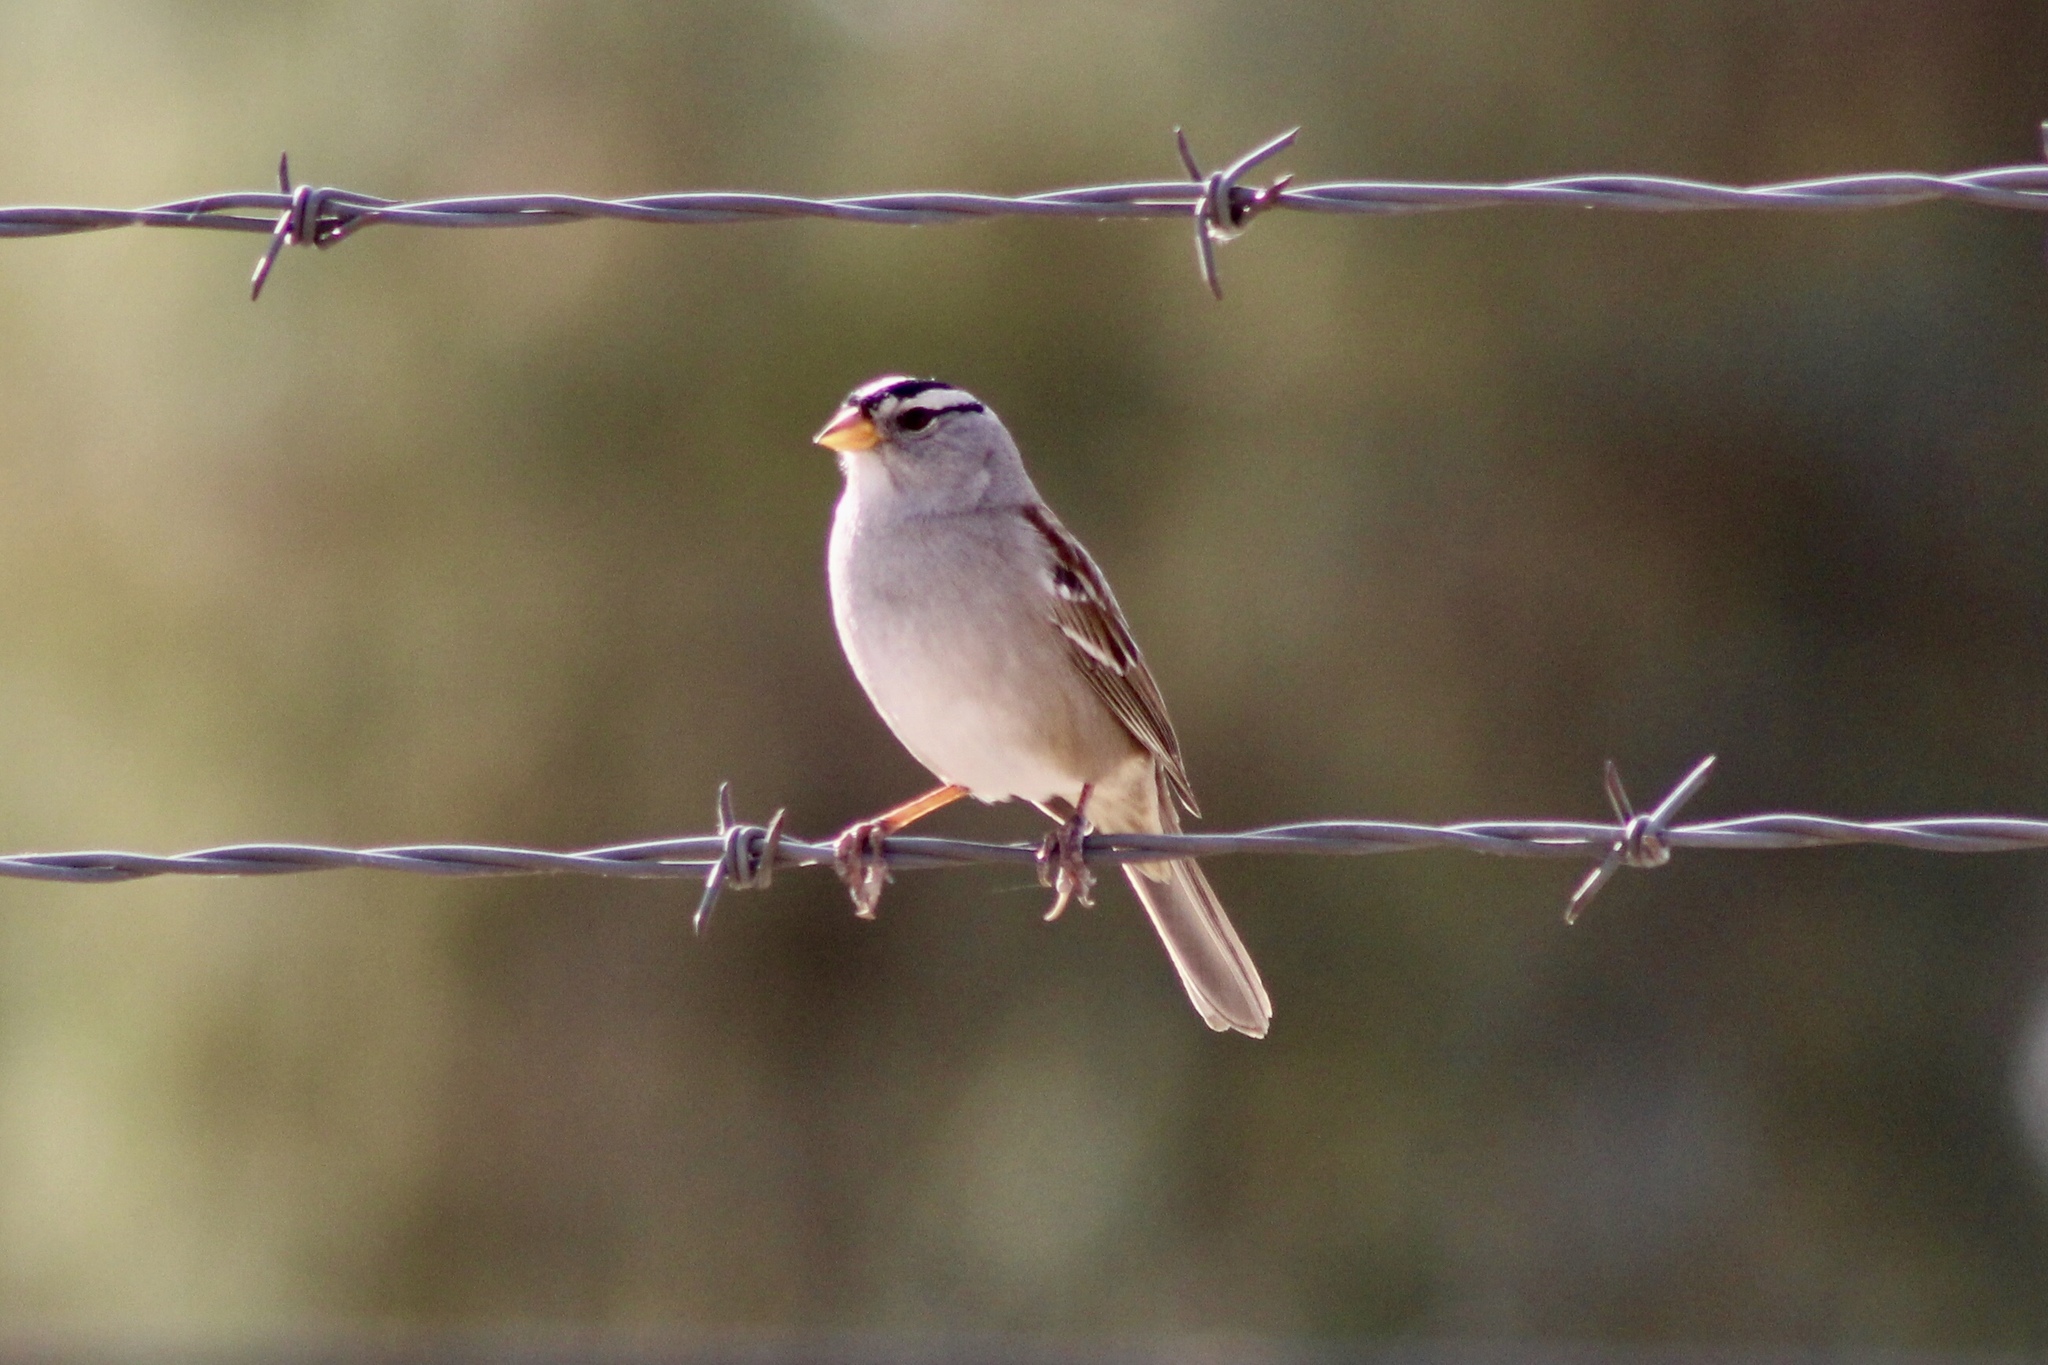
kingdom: Animalia
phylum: Chordata
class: Aves
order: Passeriformes
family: Passerellidae
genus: Zonotrichia
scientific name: Zonotrichia leucophrys
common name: White-crowned sparrow
